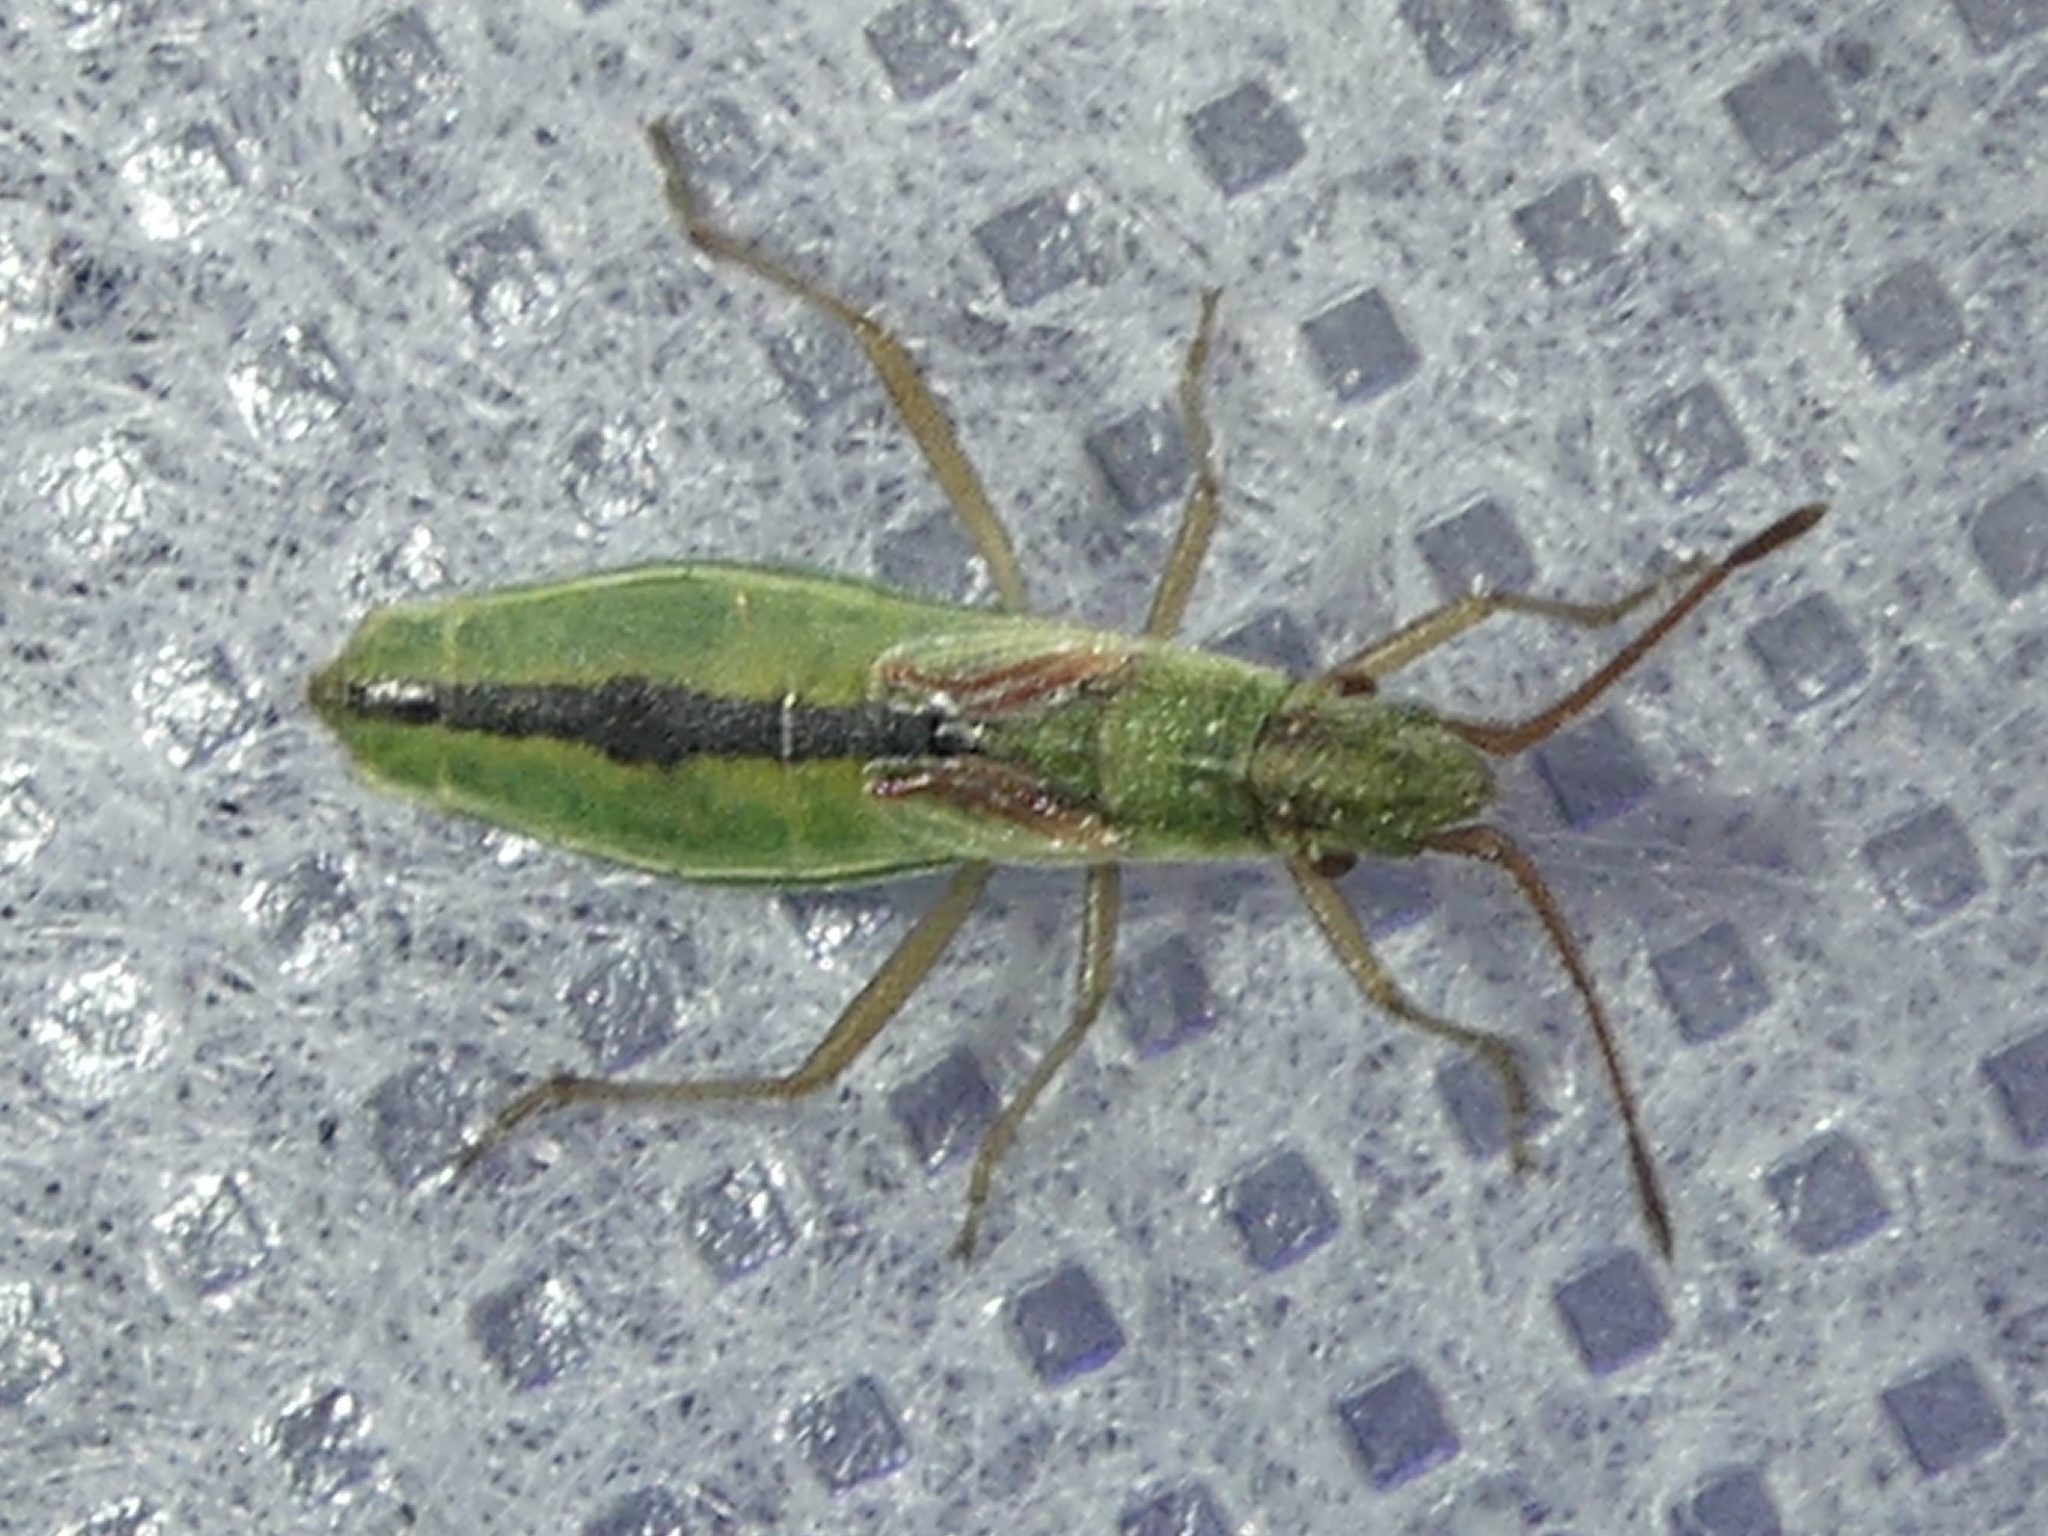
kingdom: Animalia
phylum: Arthropoda
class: Insecta
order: Hemiptera
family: Rhopalidae
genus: Myrmus
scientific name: Myrmus miriformis
